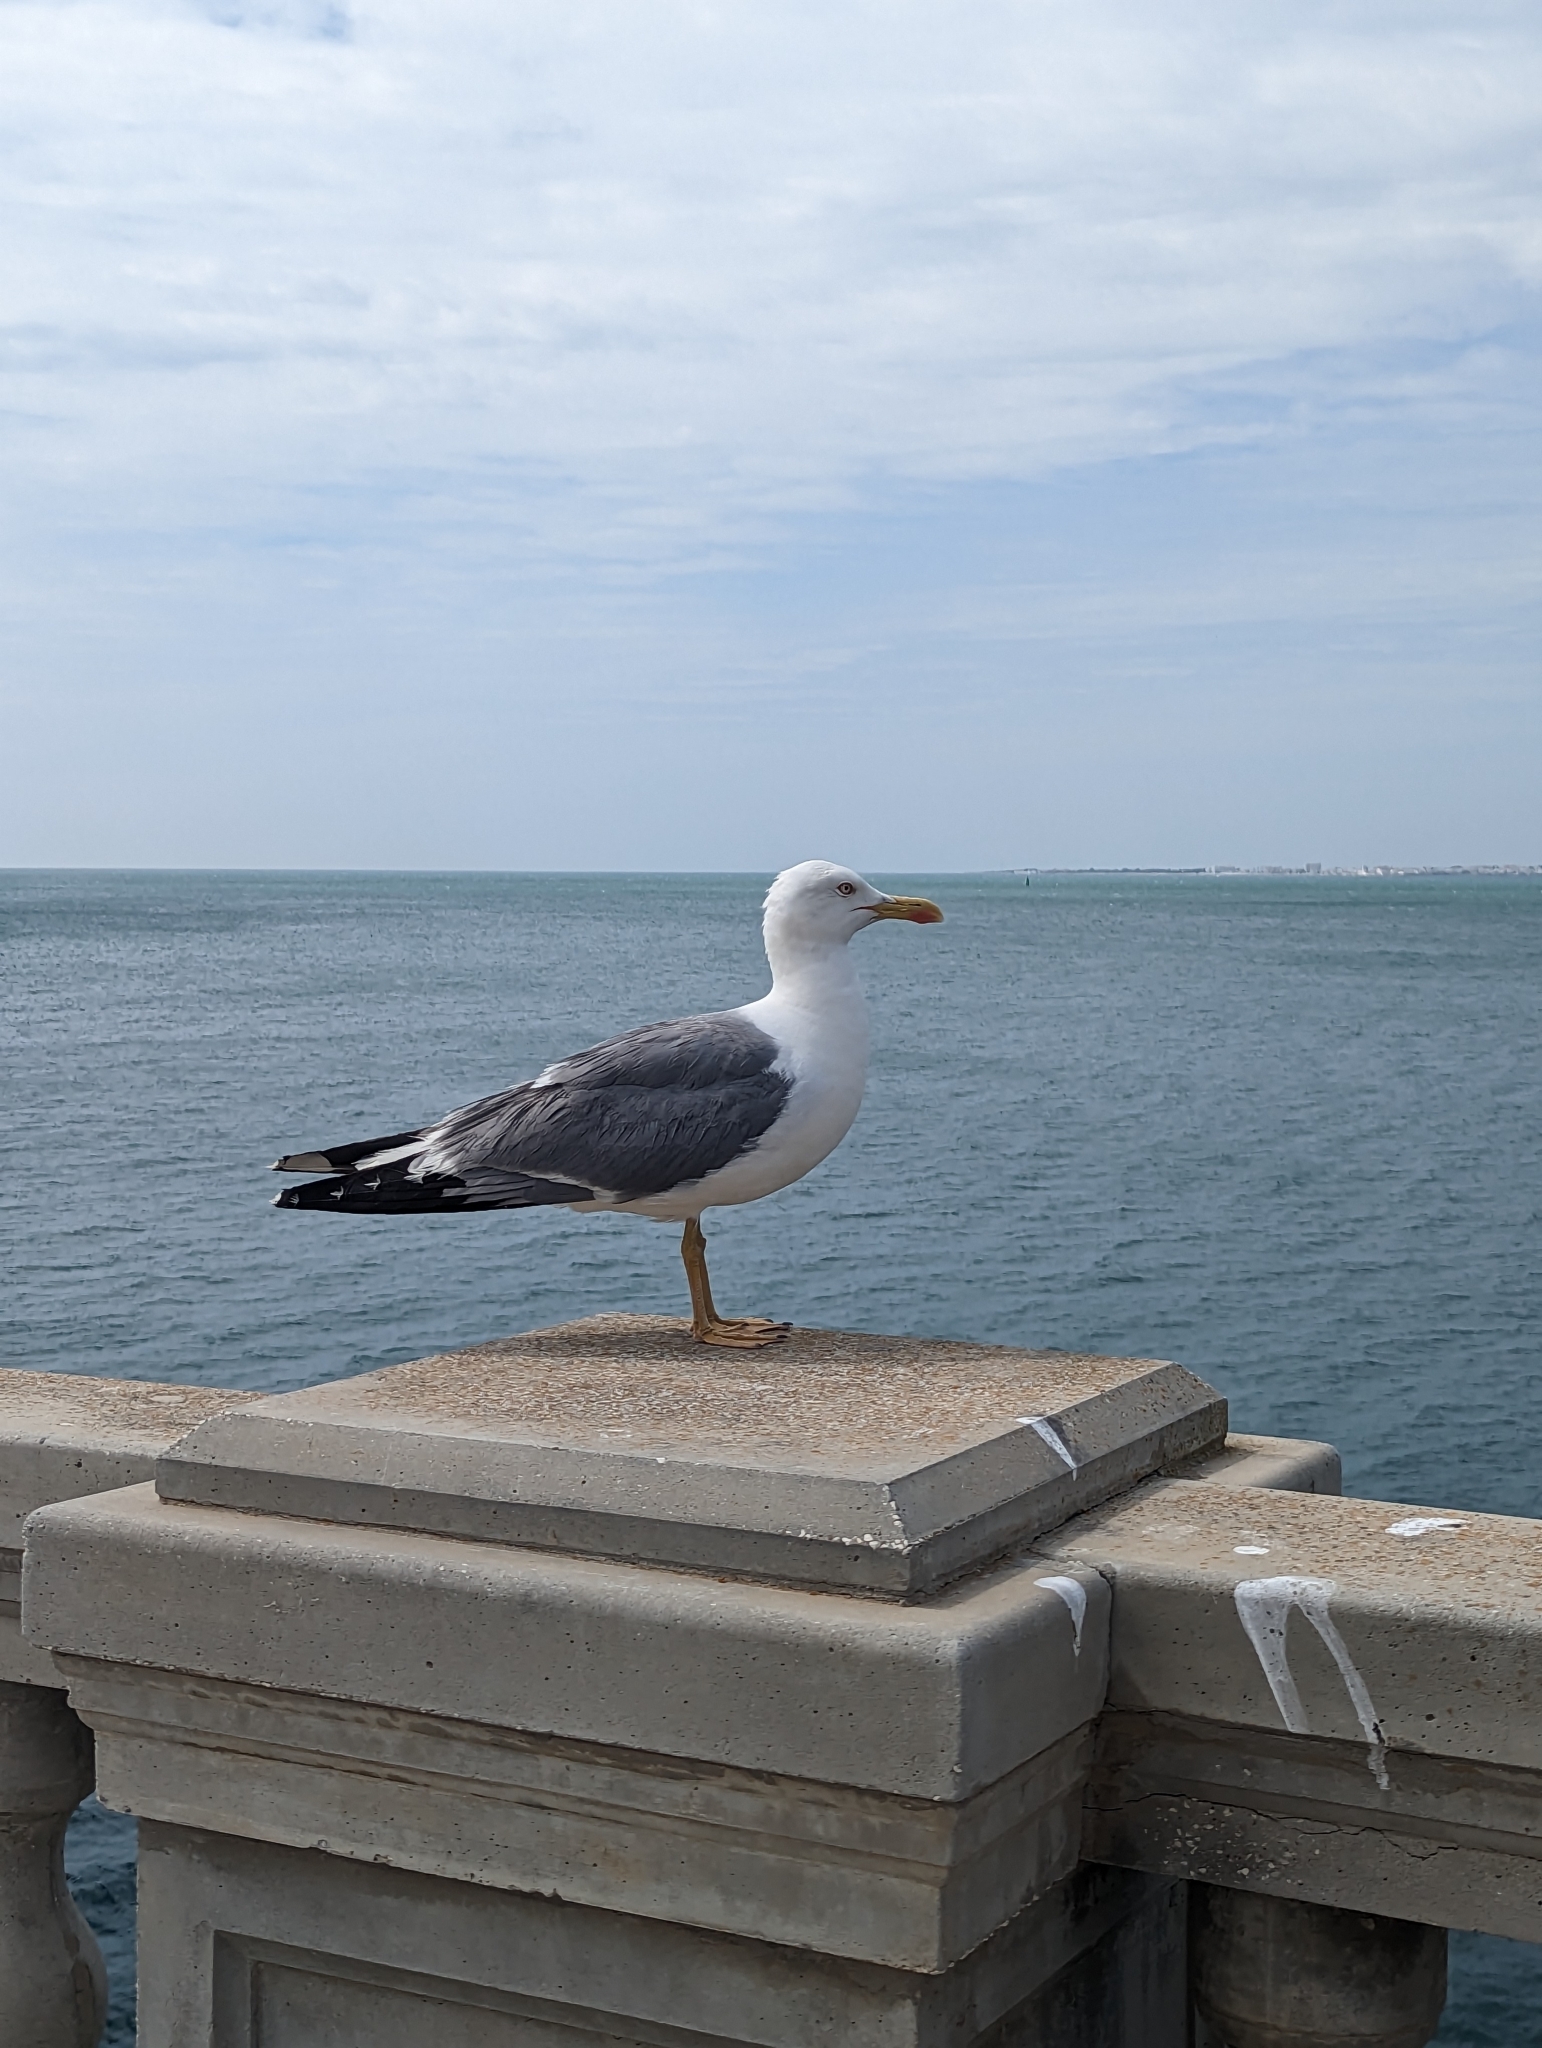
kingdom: Animalia
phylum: Chordata
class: Aves
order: Charadriiformes
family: Laridae
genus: Larus
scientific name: Larus fuscus
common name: Lesser black-backed gull
